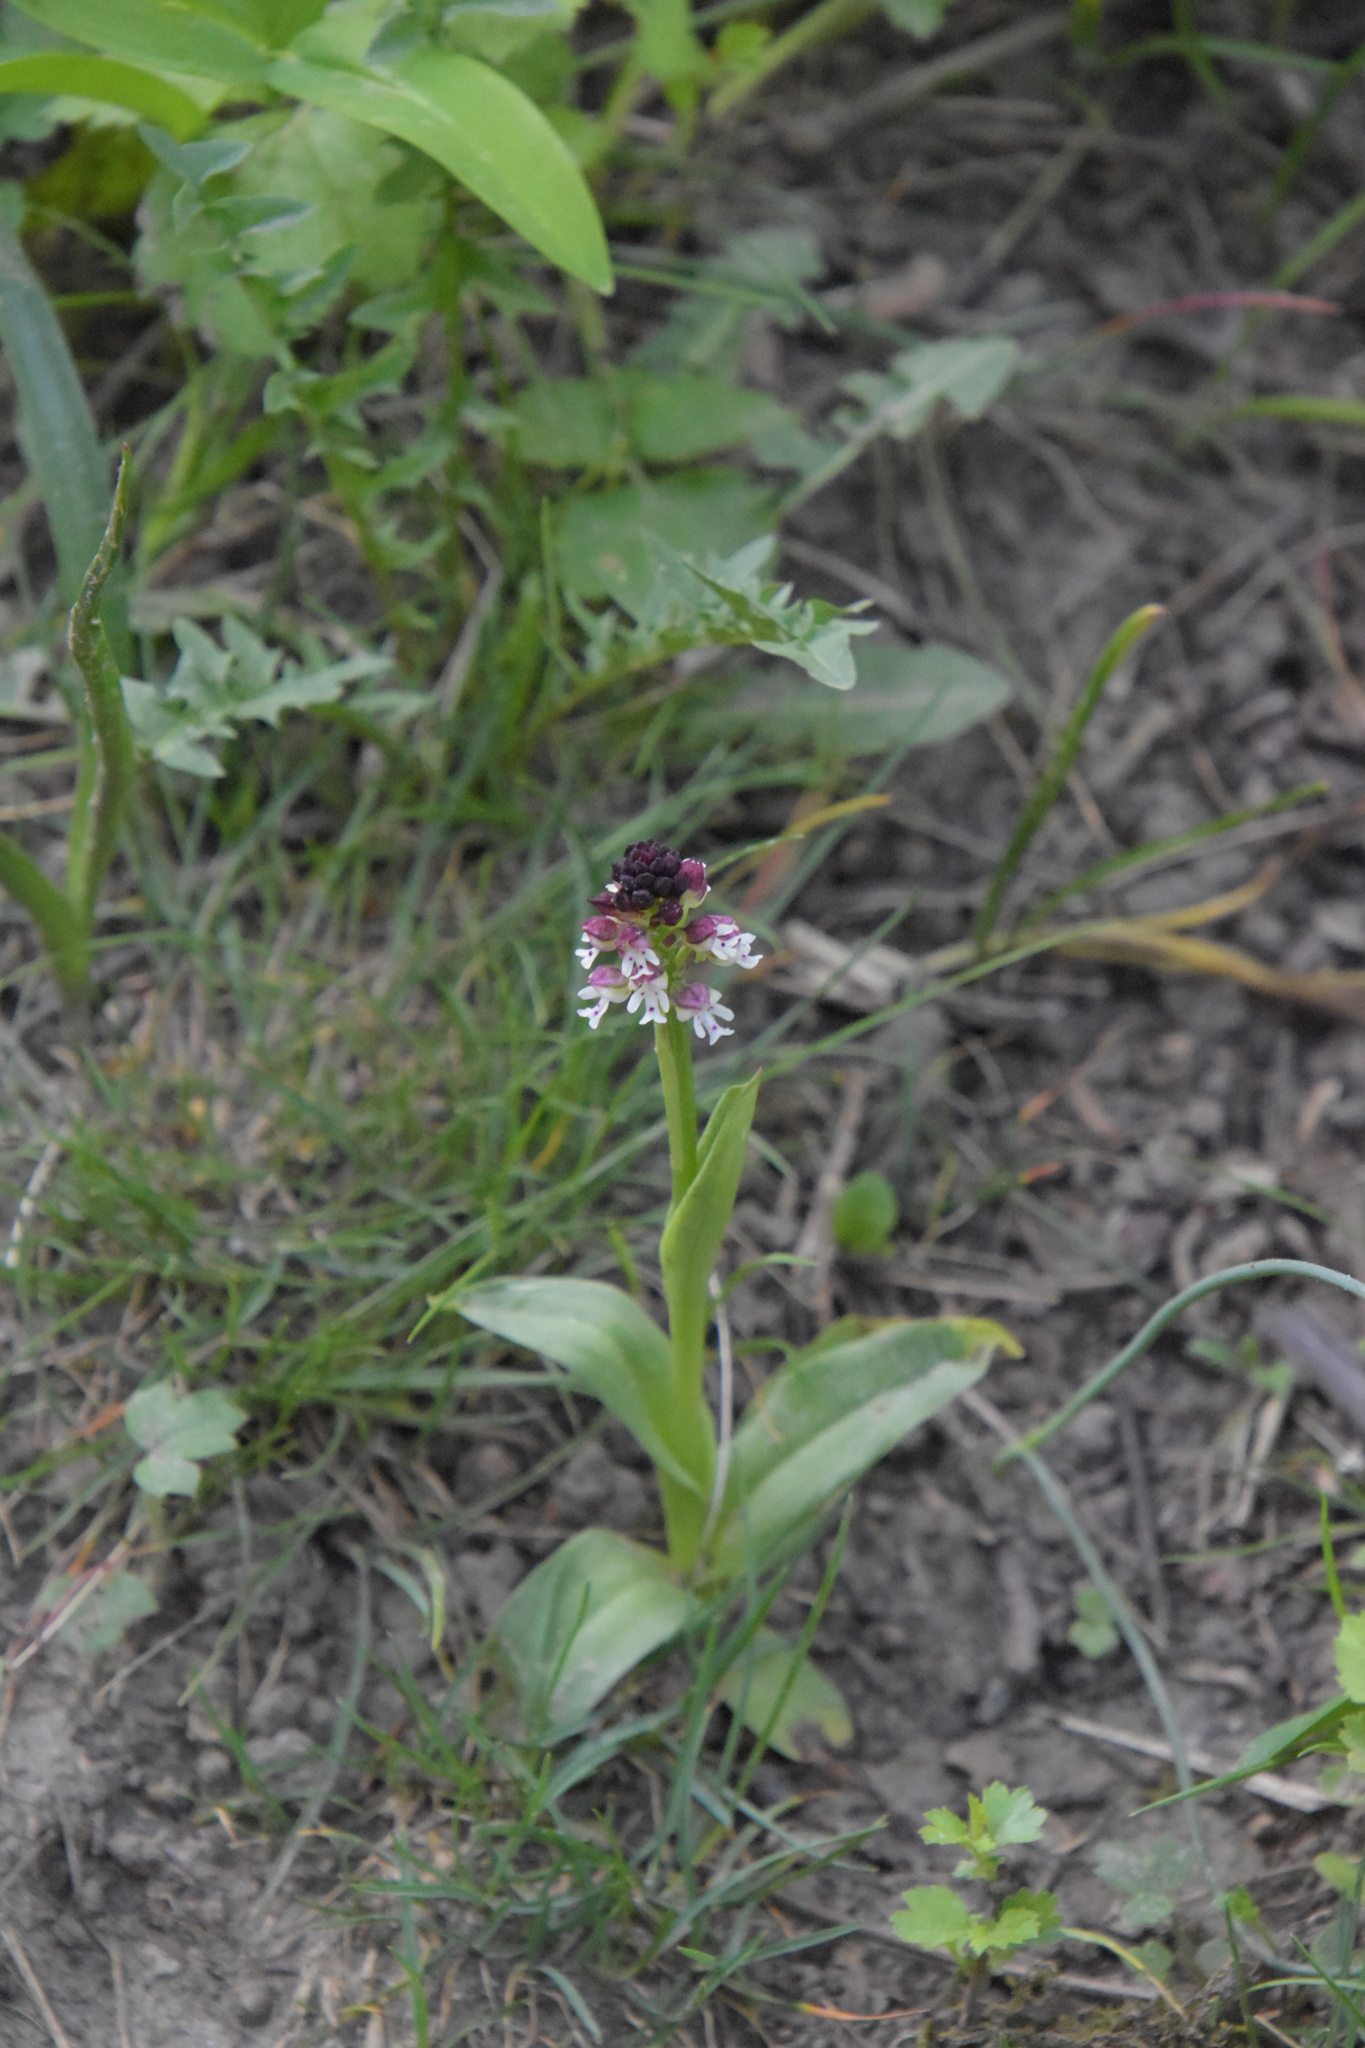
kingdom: Plantae
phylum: Tracheophyta
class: Liliopsida
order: Asparagales
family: Orchidaceae
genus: Neotinea
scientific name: Neotinea ustulata
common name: Burnt orchid
